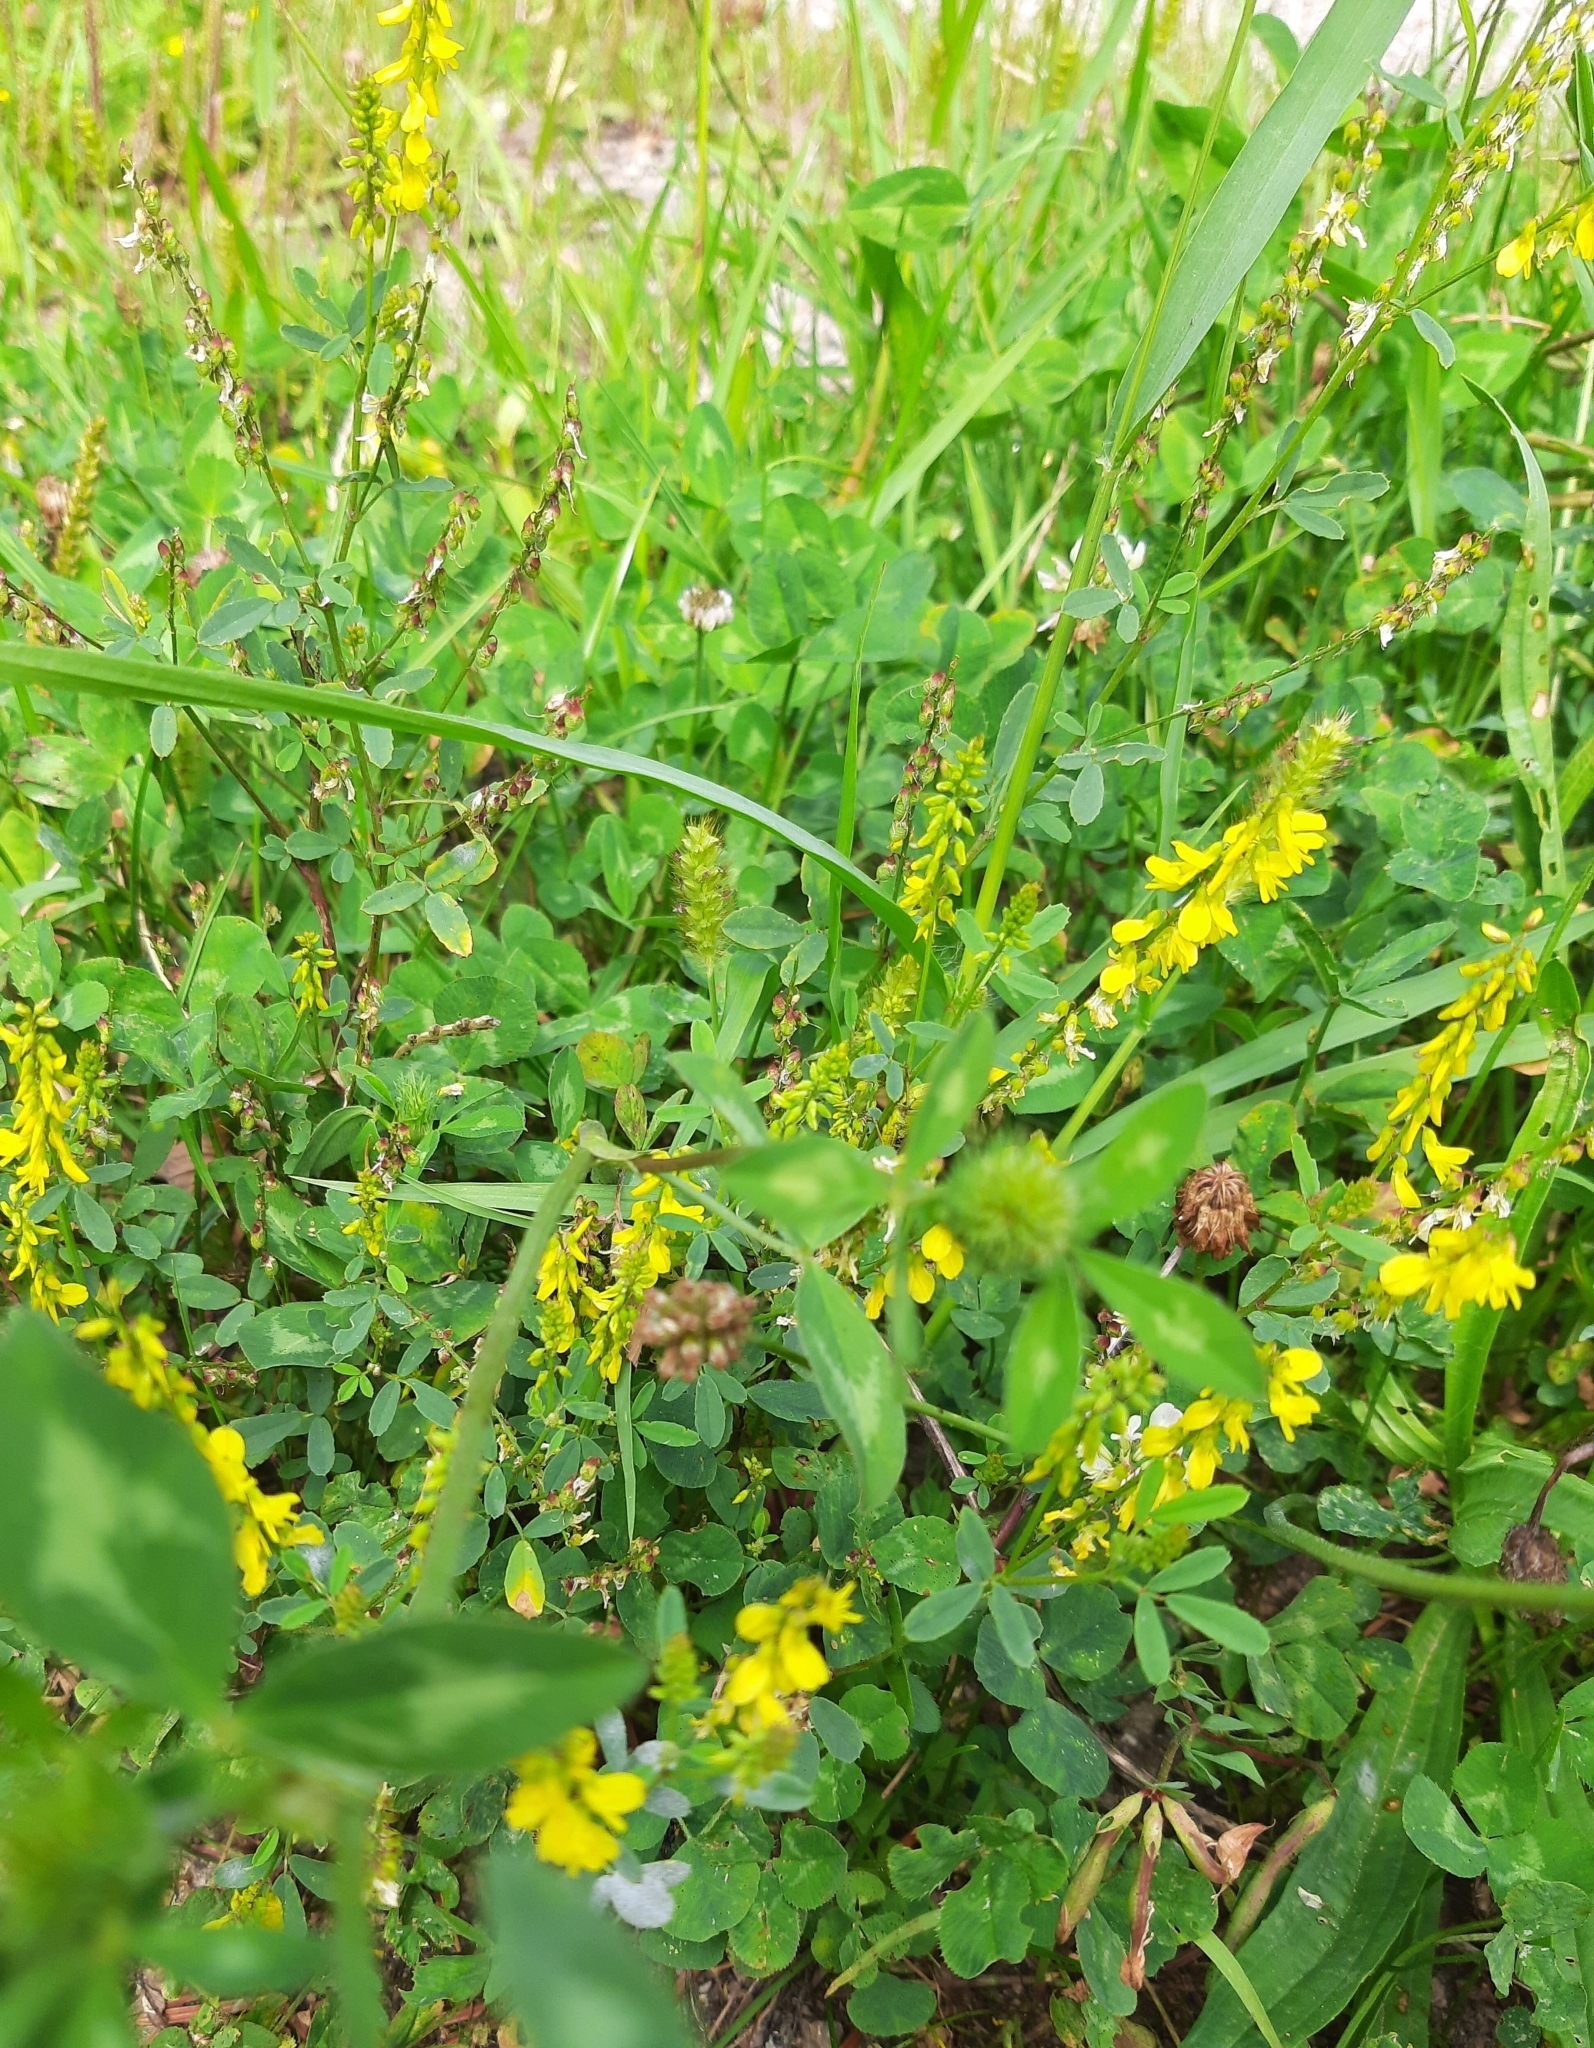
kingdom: Plantae
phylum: Tracheophyta
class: Magnoliopsida
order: Fabales
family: Fabaceae
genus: Melilotus
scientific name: Melilotus officinalis
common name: Sweetclover
